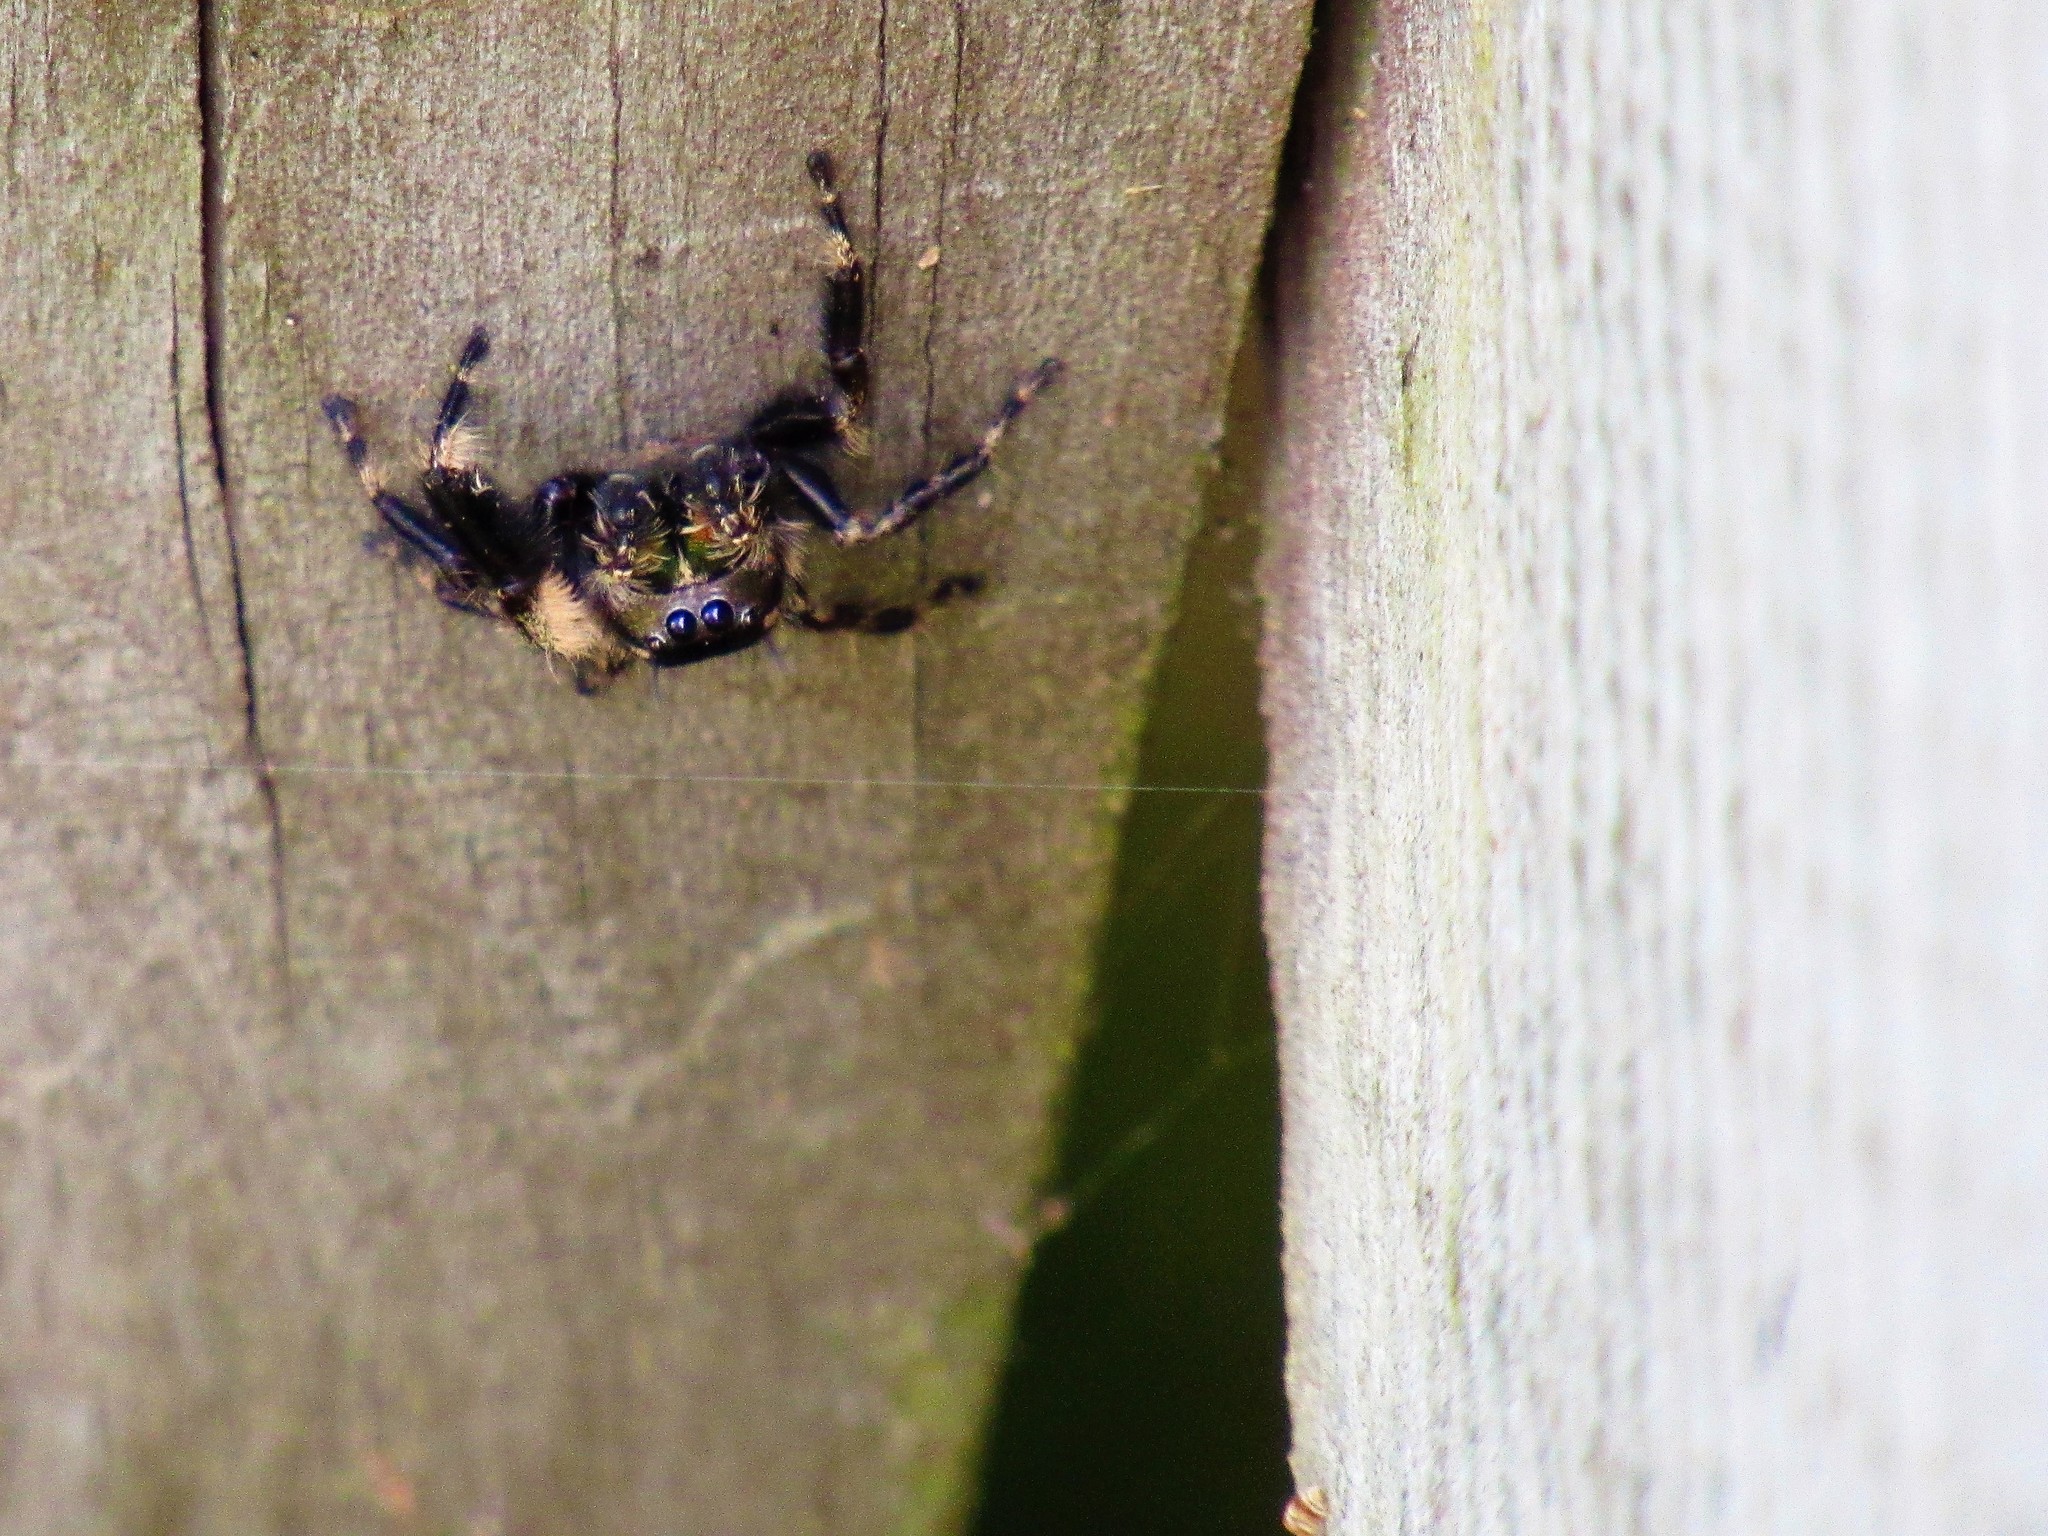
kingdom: Animalia
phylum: Arthropoda
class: Arachnida
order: Araneae
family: Salticidae
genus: Phidippus
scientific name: Phidippus otiosus
